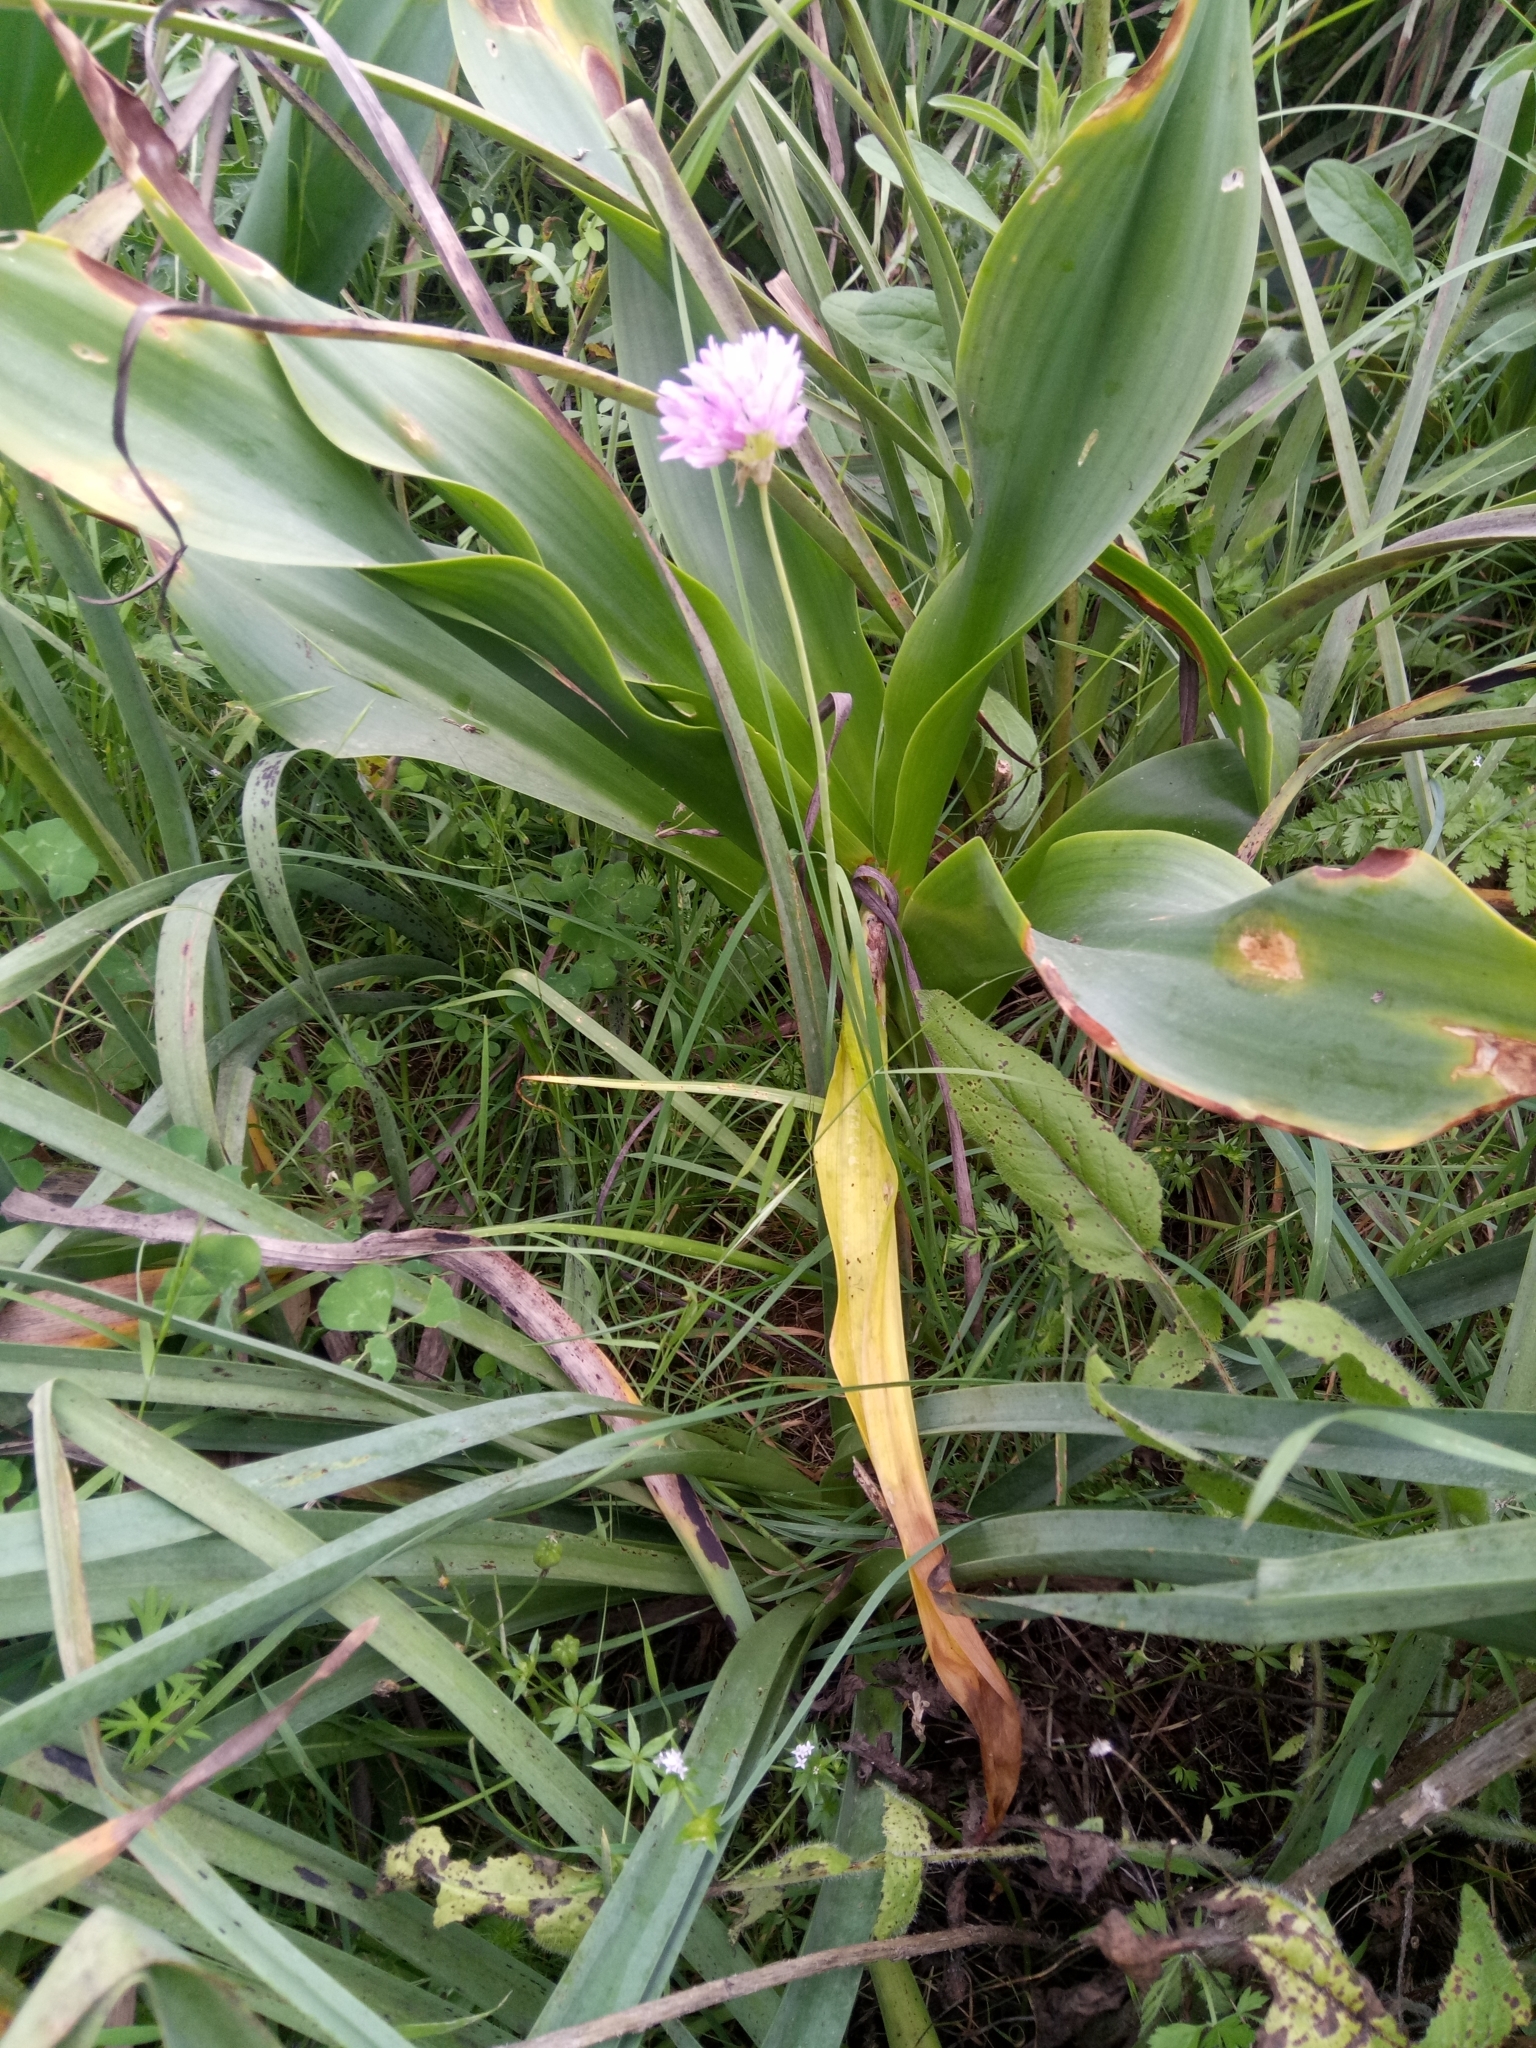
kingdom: Plantae
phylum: Tracheophyta
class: Liliopsida
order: Asparagales
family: Amaryllidaceae
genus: Allium
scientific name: Allium roseum
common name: Rosy garlic
